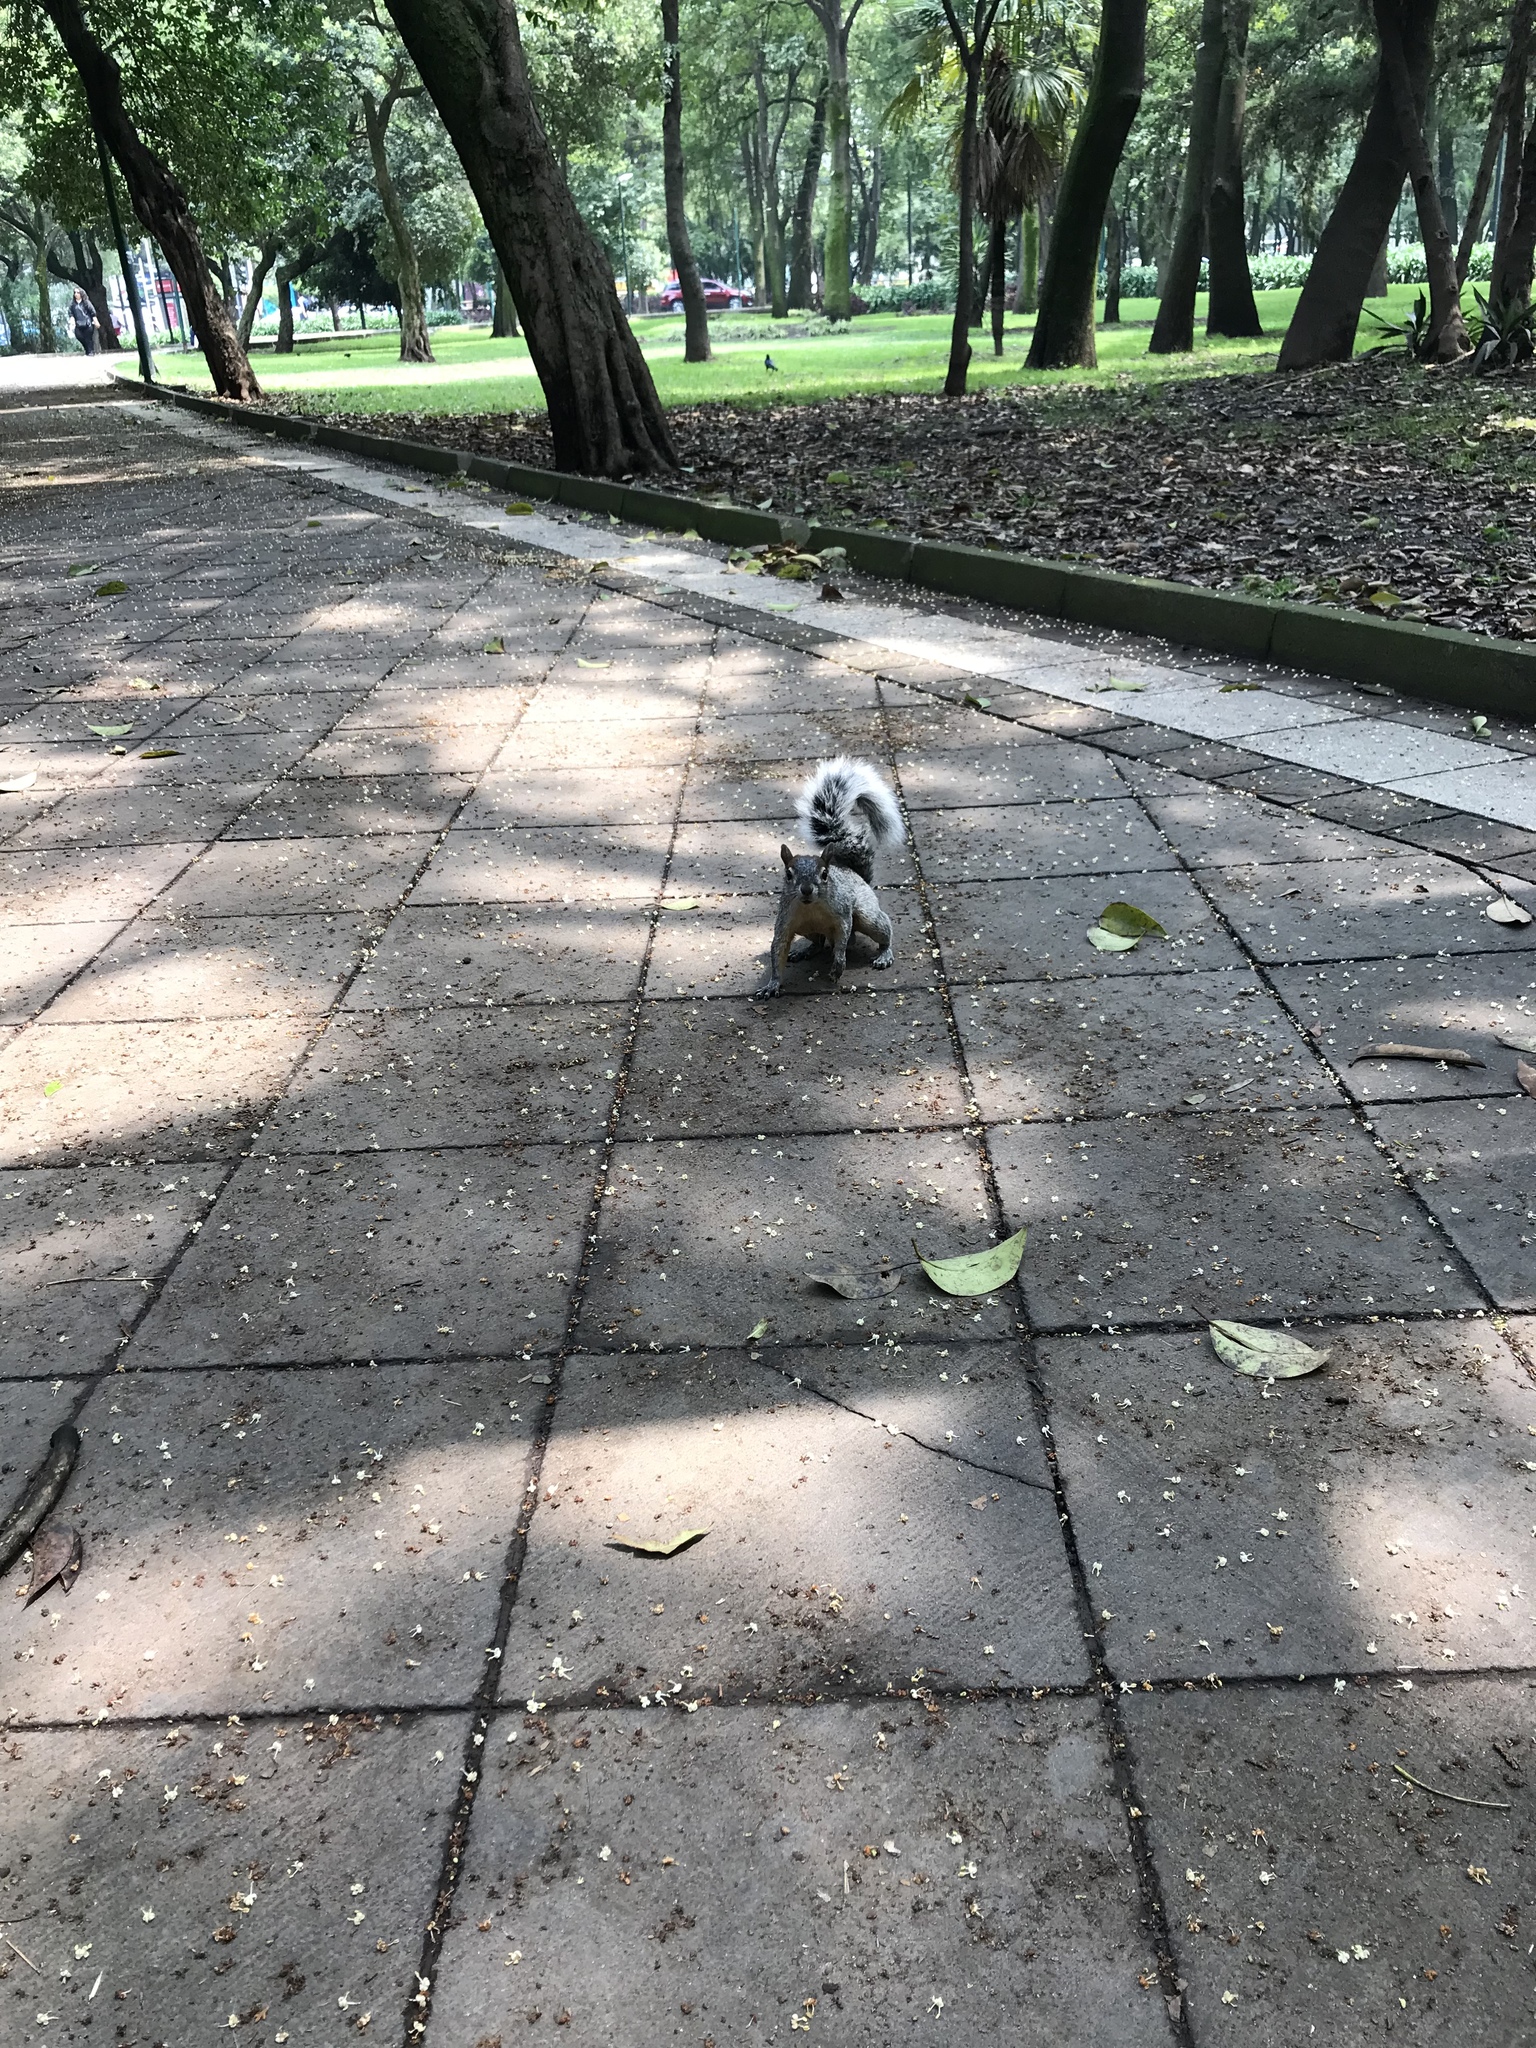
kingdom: Animalia
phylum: Chordata
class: Mammalia
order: Rodentia
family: Sciuridae
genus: Sciurus
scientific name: Sciurus aureogaster
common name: Red-bellied squirrel
